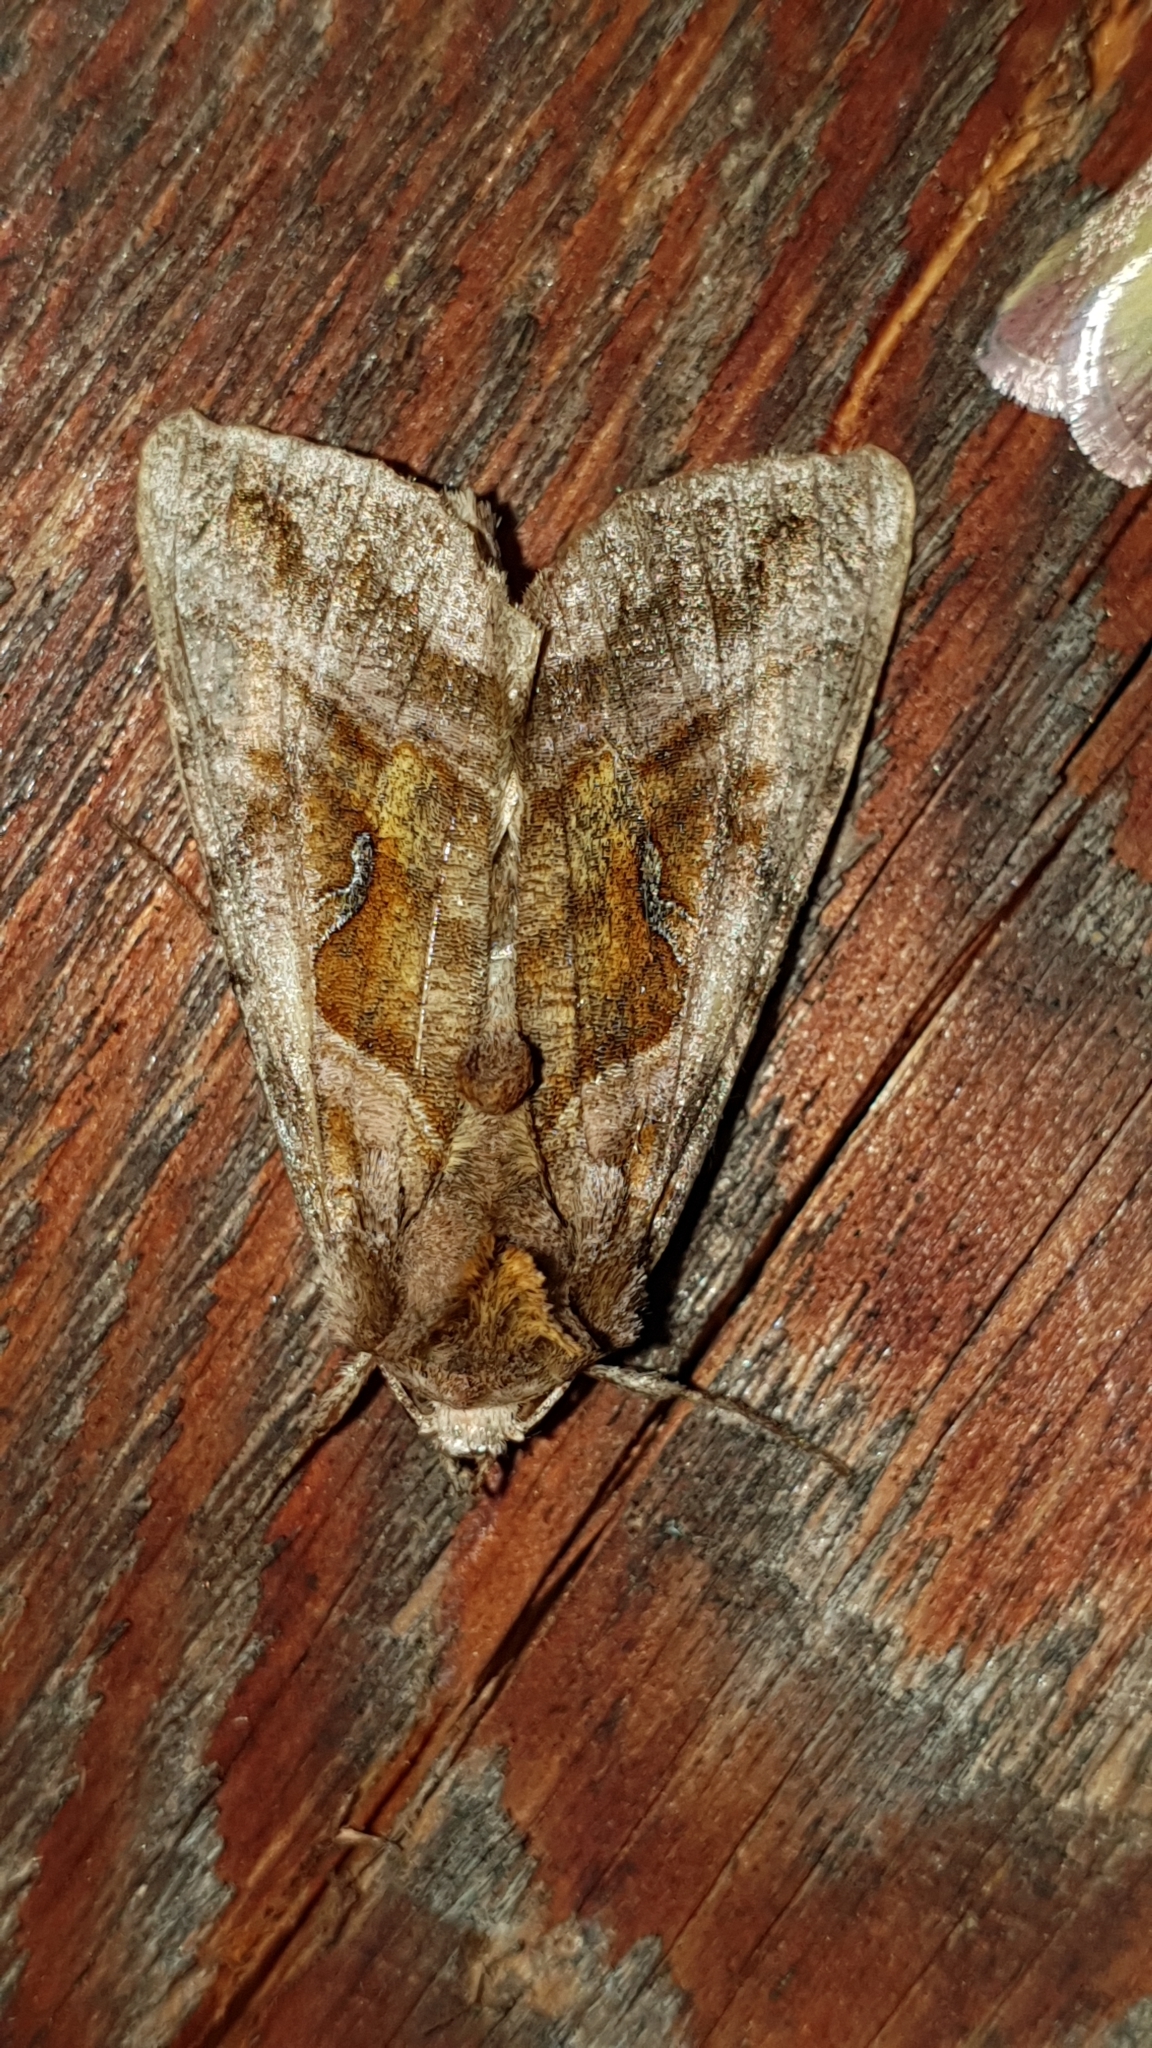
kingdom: Animalia
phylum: Arthropoda
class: Insecta
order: Lepidoptera
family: Noctuidae
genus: Autographa
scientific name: Autographa jota
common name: Plain golden y
